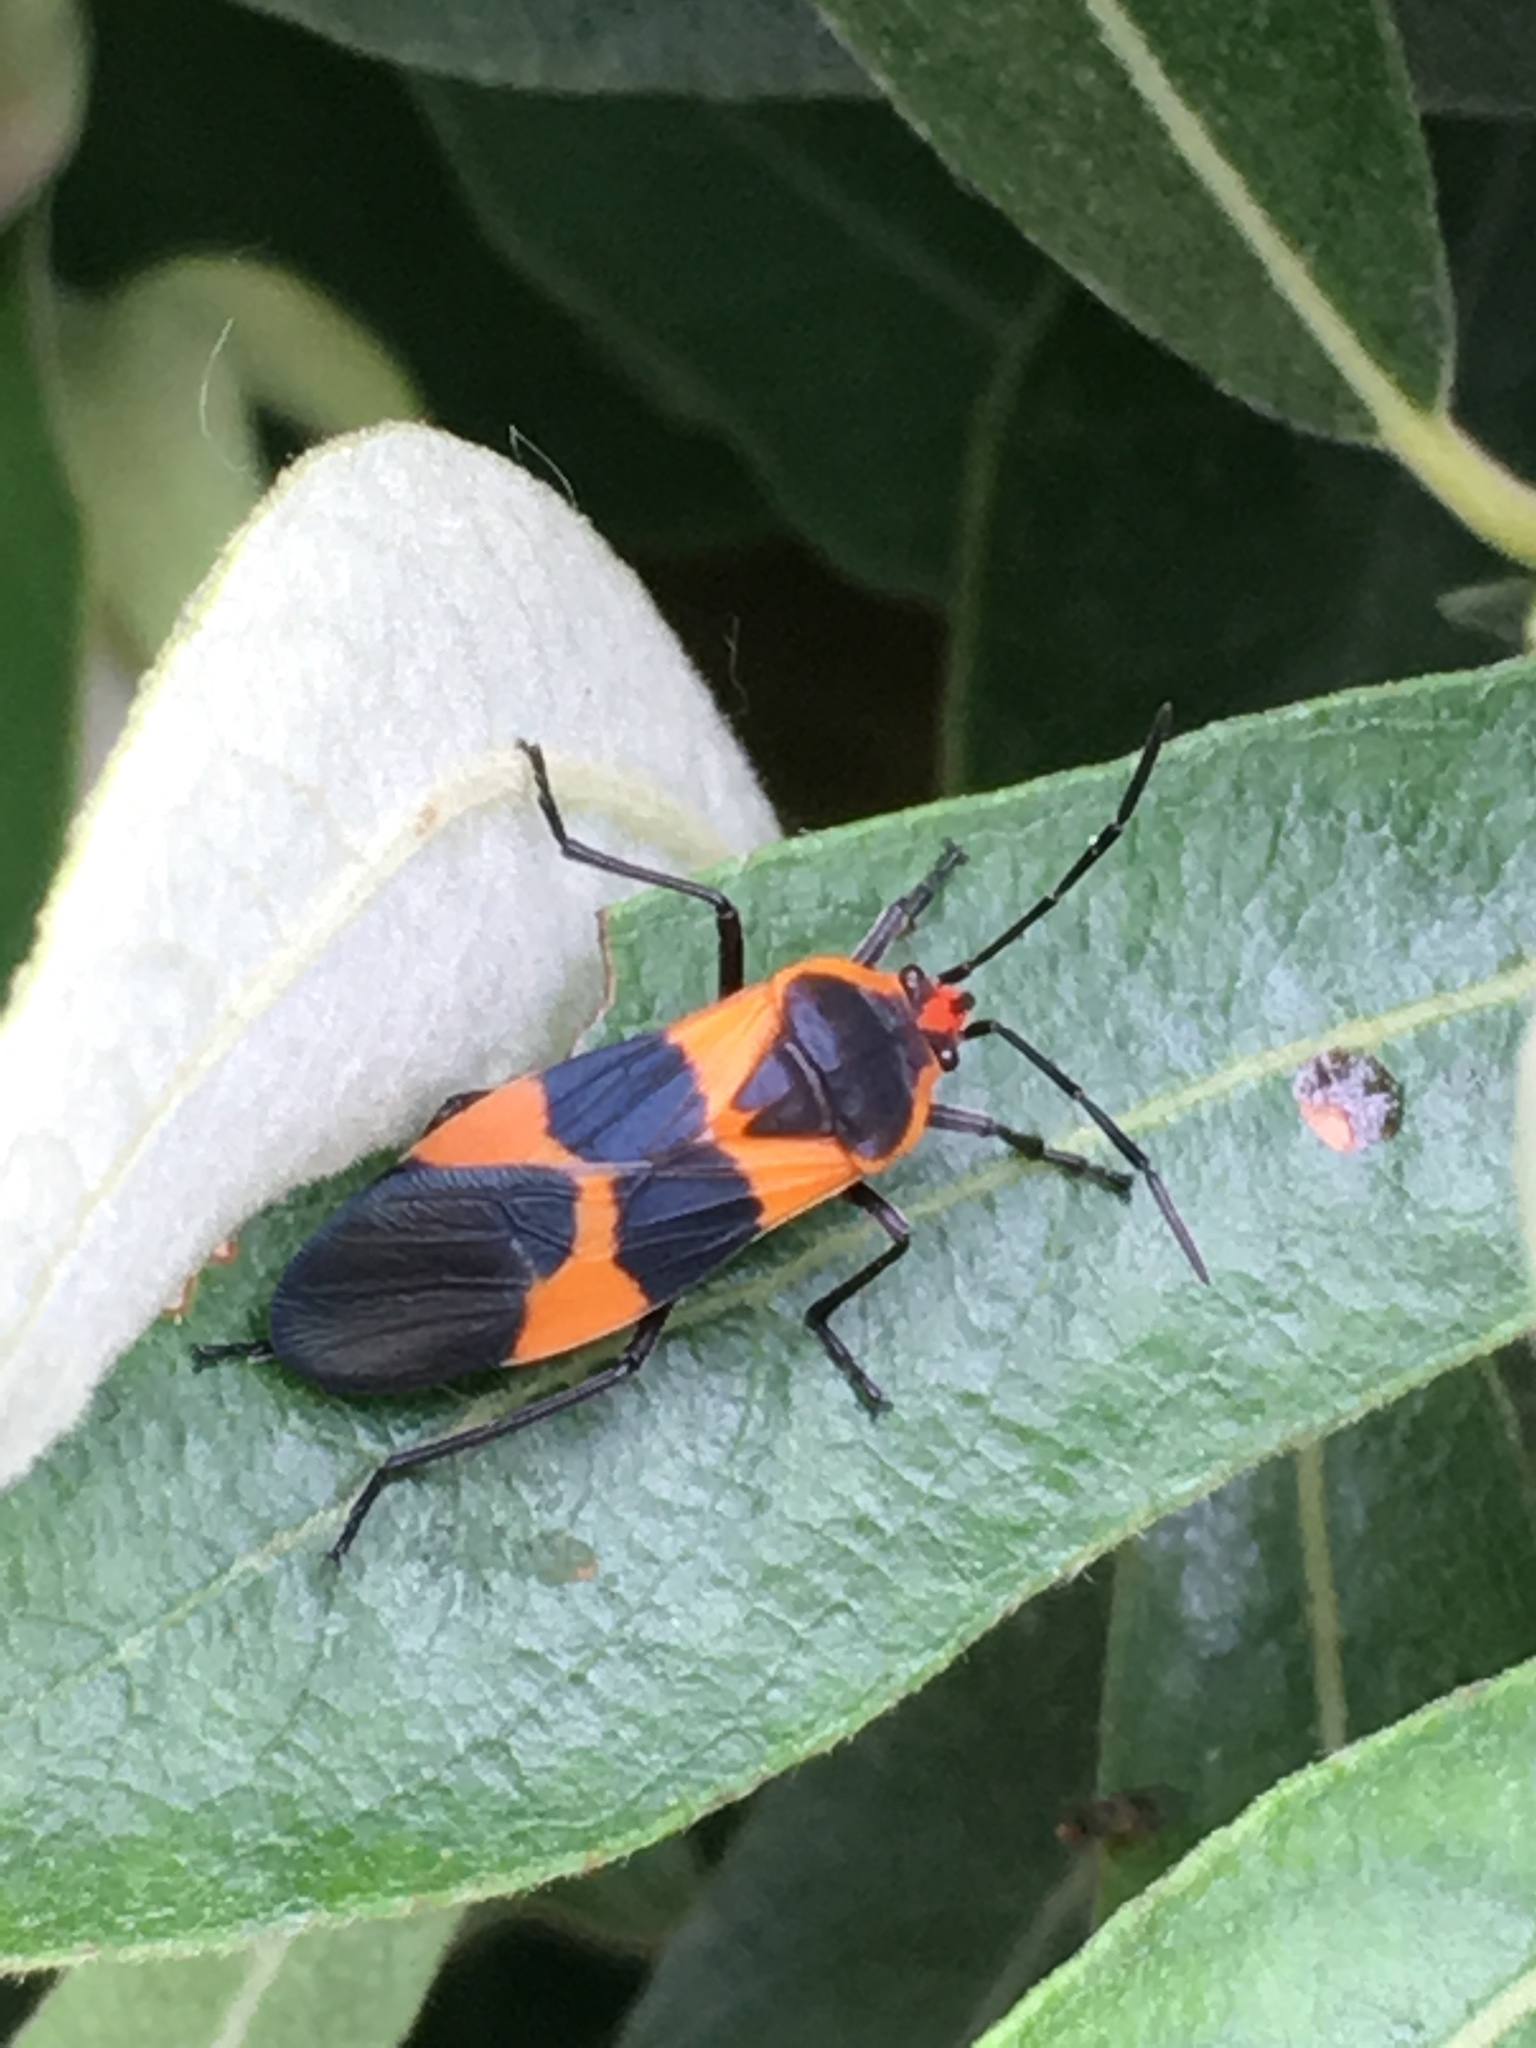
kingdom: Animalia
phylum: Arthropoda
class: Insecta
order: Hemiptera
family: Lygaeidae
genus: Oncopeltus
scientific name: Oncopeltus fasciatus
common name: Large milkweed bug
